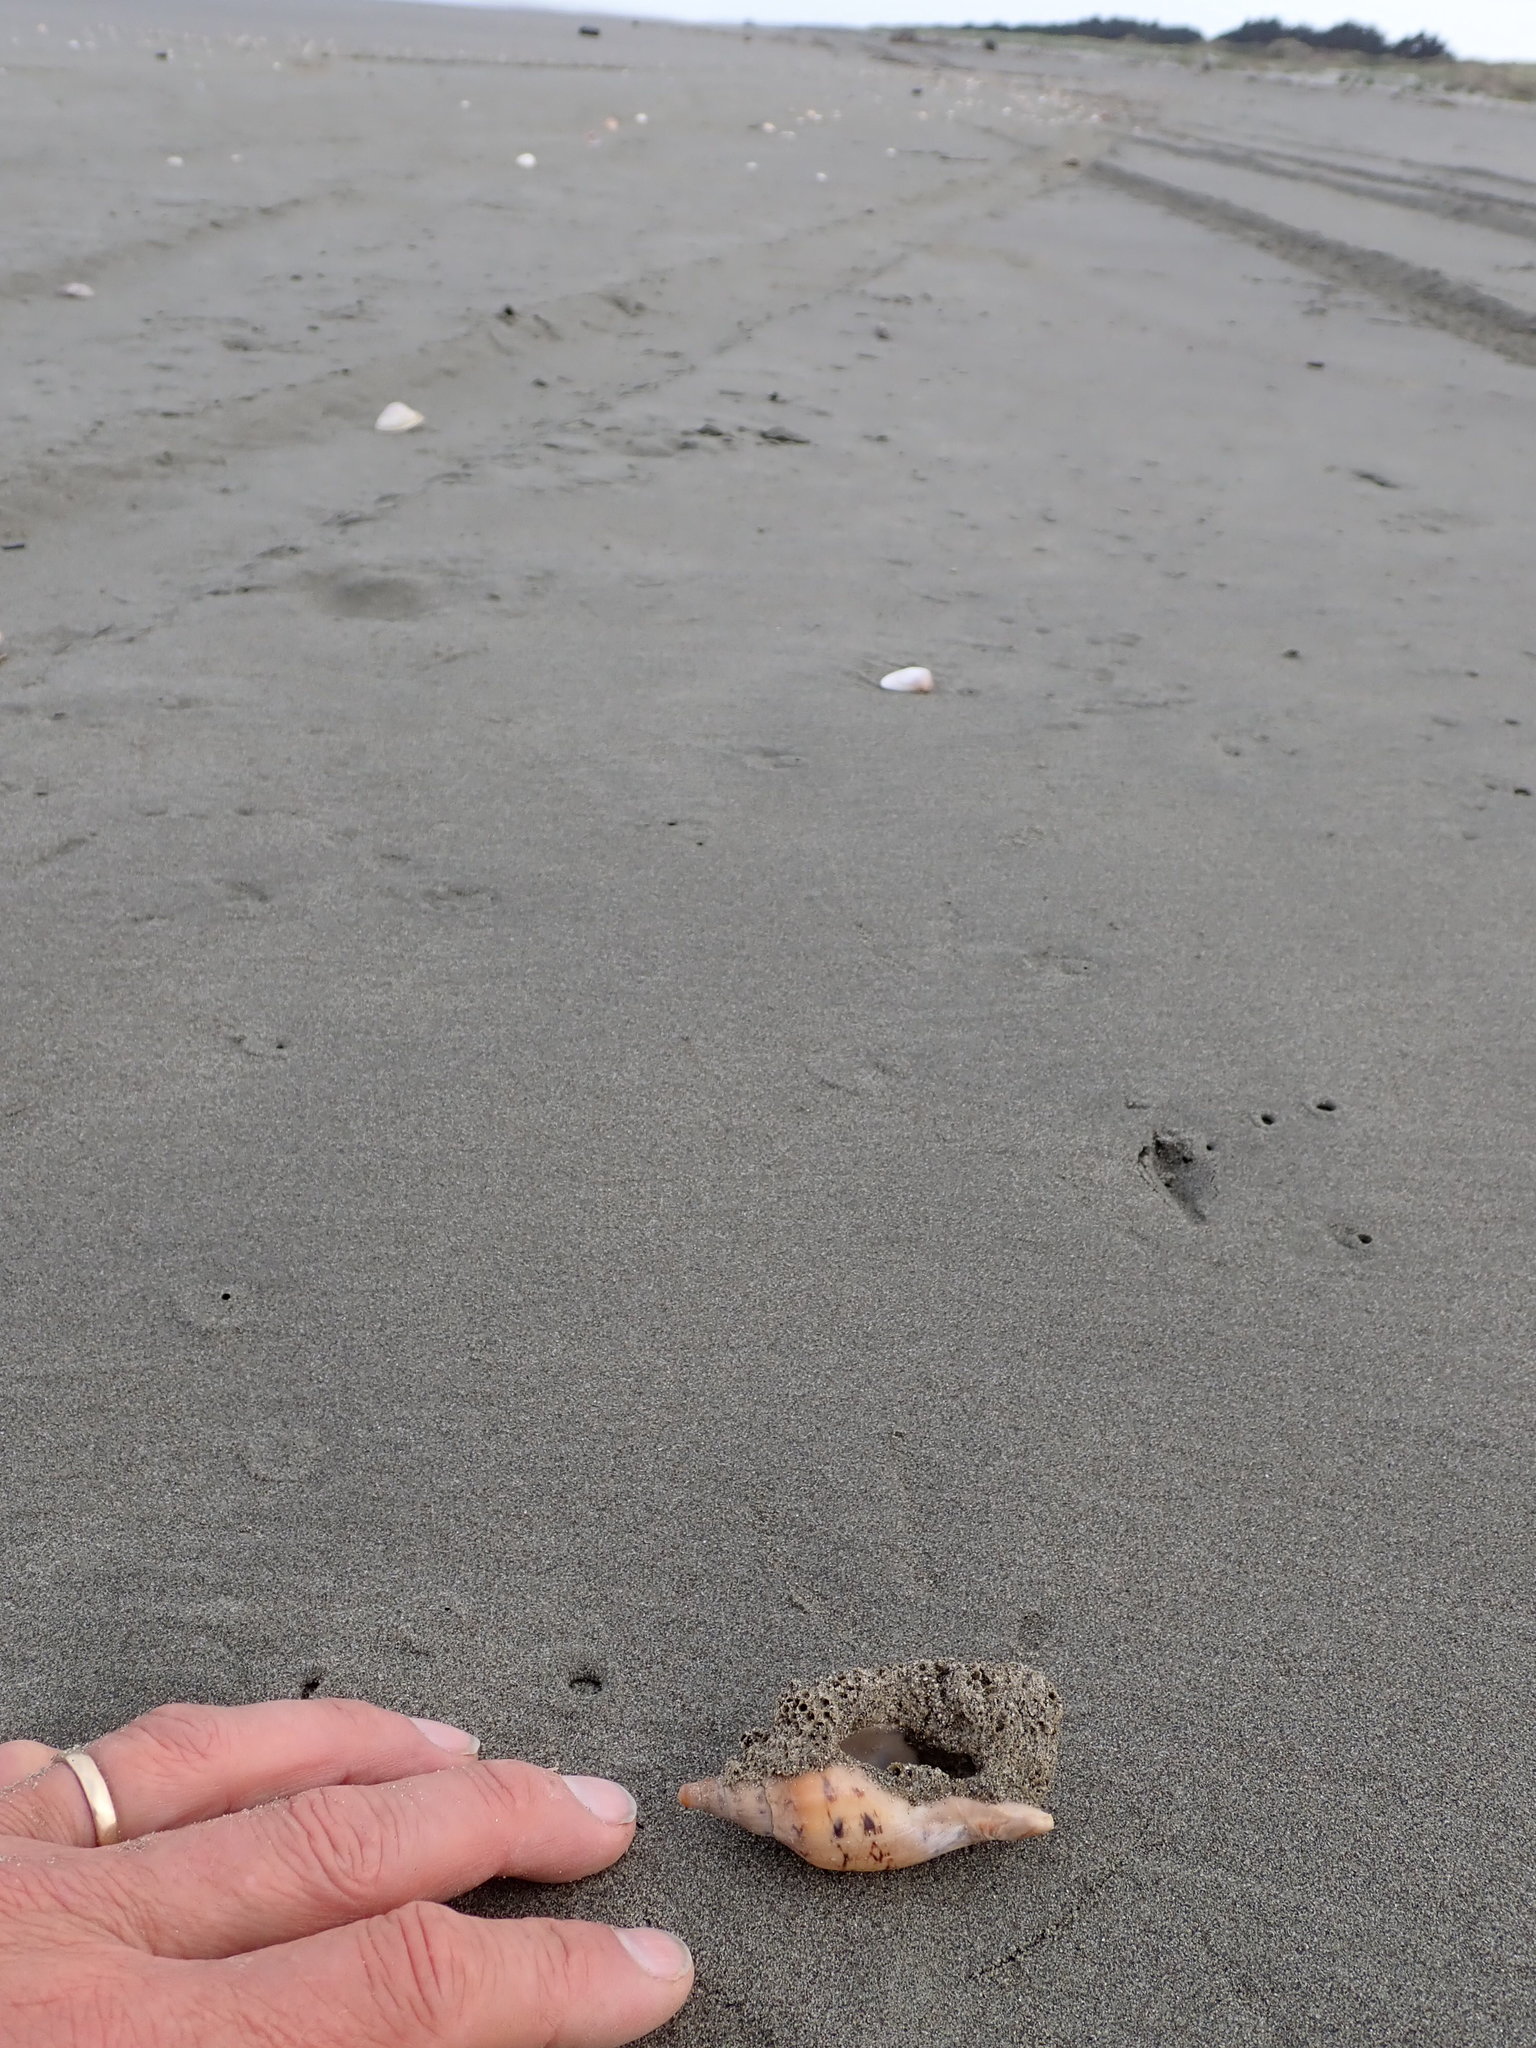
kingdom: Animalia
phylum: Annelida
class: Polychaeta
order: Sabellida
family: Sabellariidae
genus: Neosabellaria
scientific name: Neosabellaria kaiparaensis
